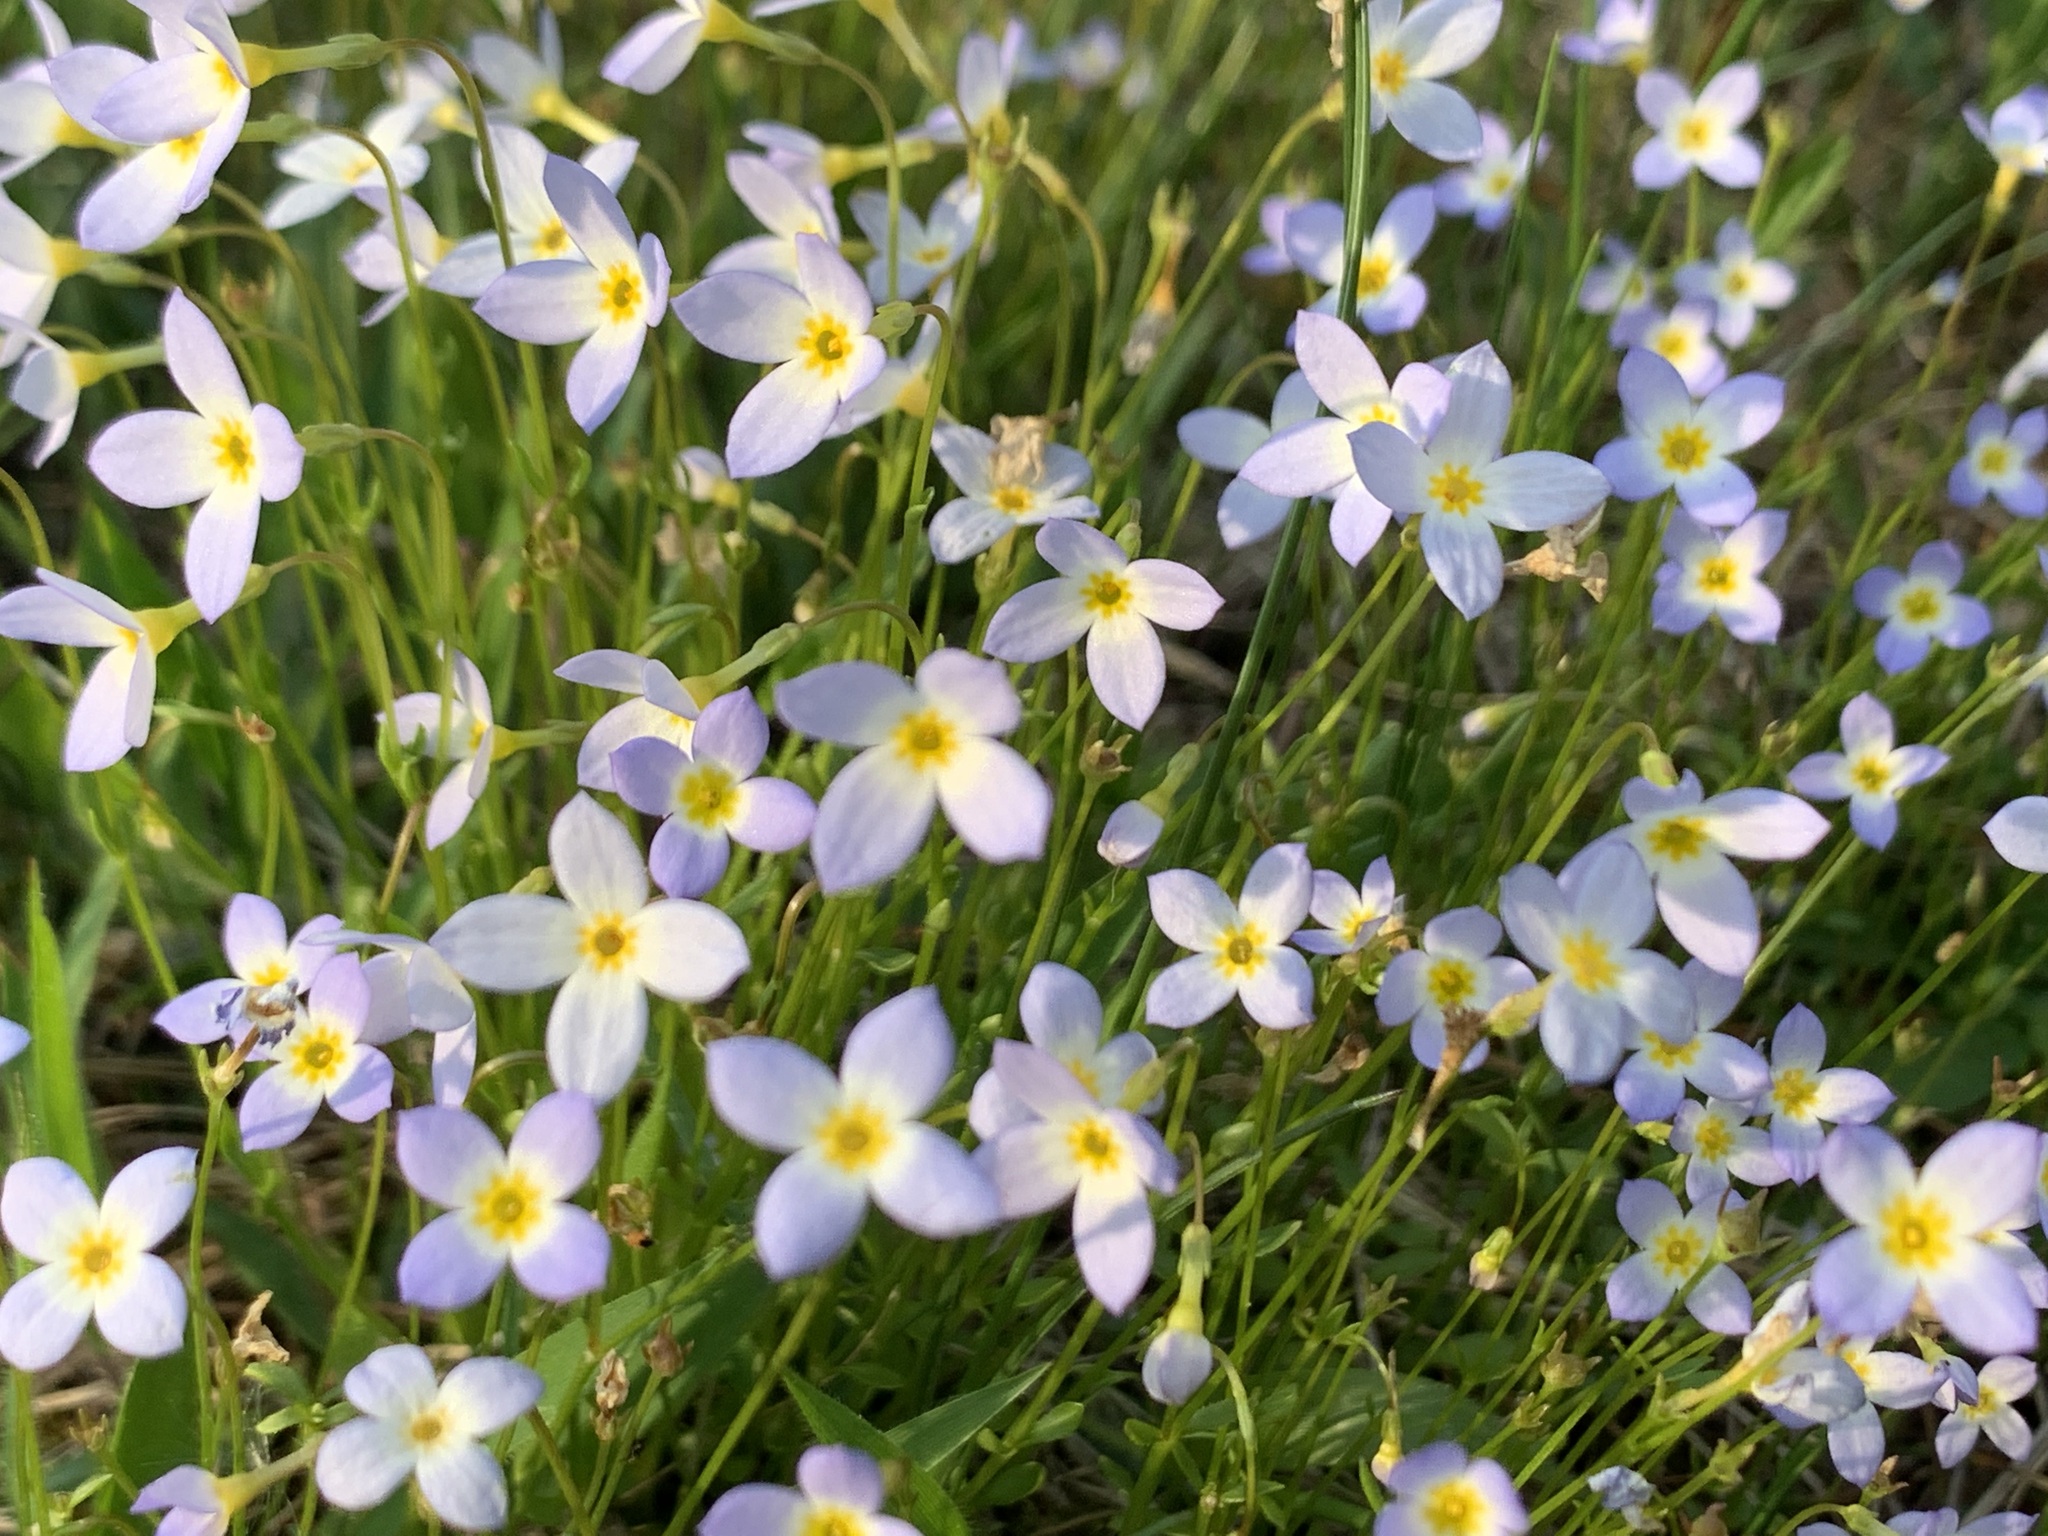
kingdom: Plantae
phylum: Tracheophyta
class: Magnoliopsida
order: Gentianales
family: Rubiaceae
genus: Houstonia
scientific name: Houstonia caerulea
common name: Bluets
